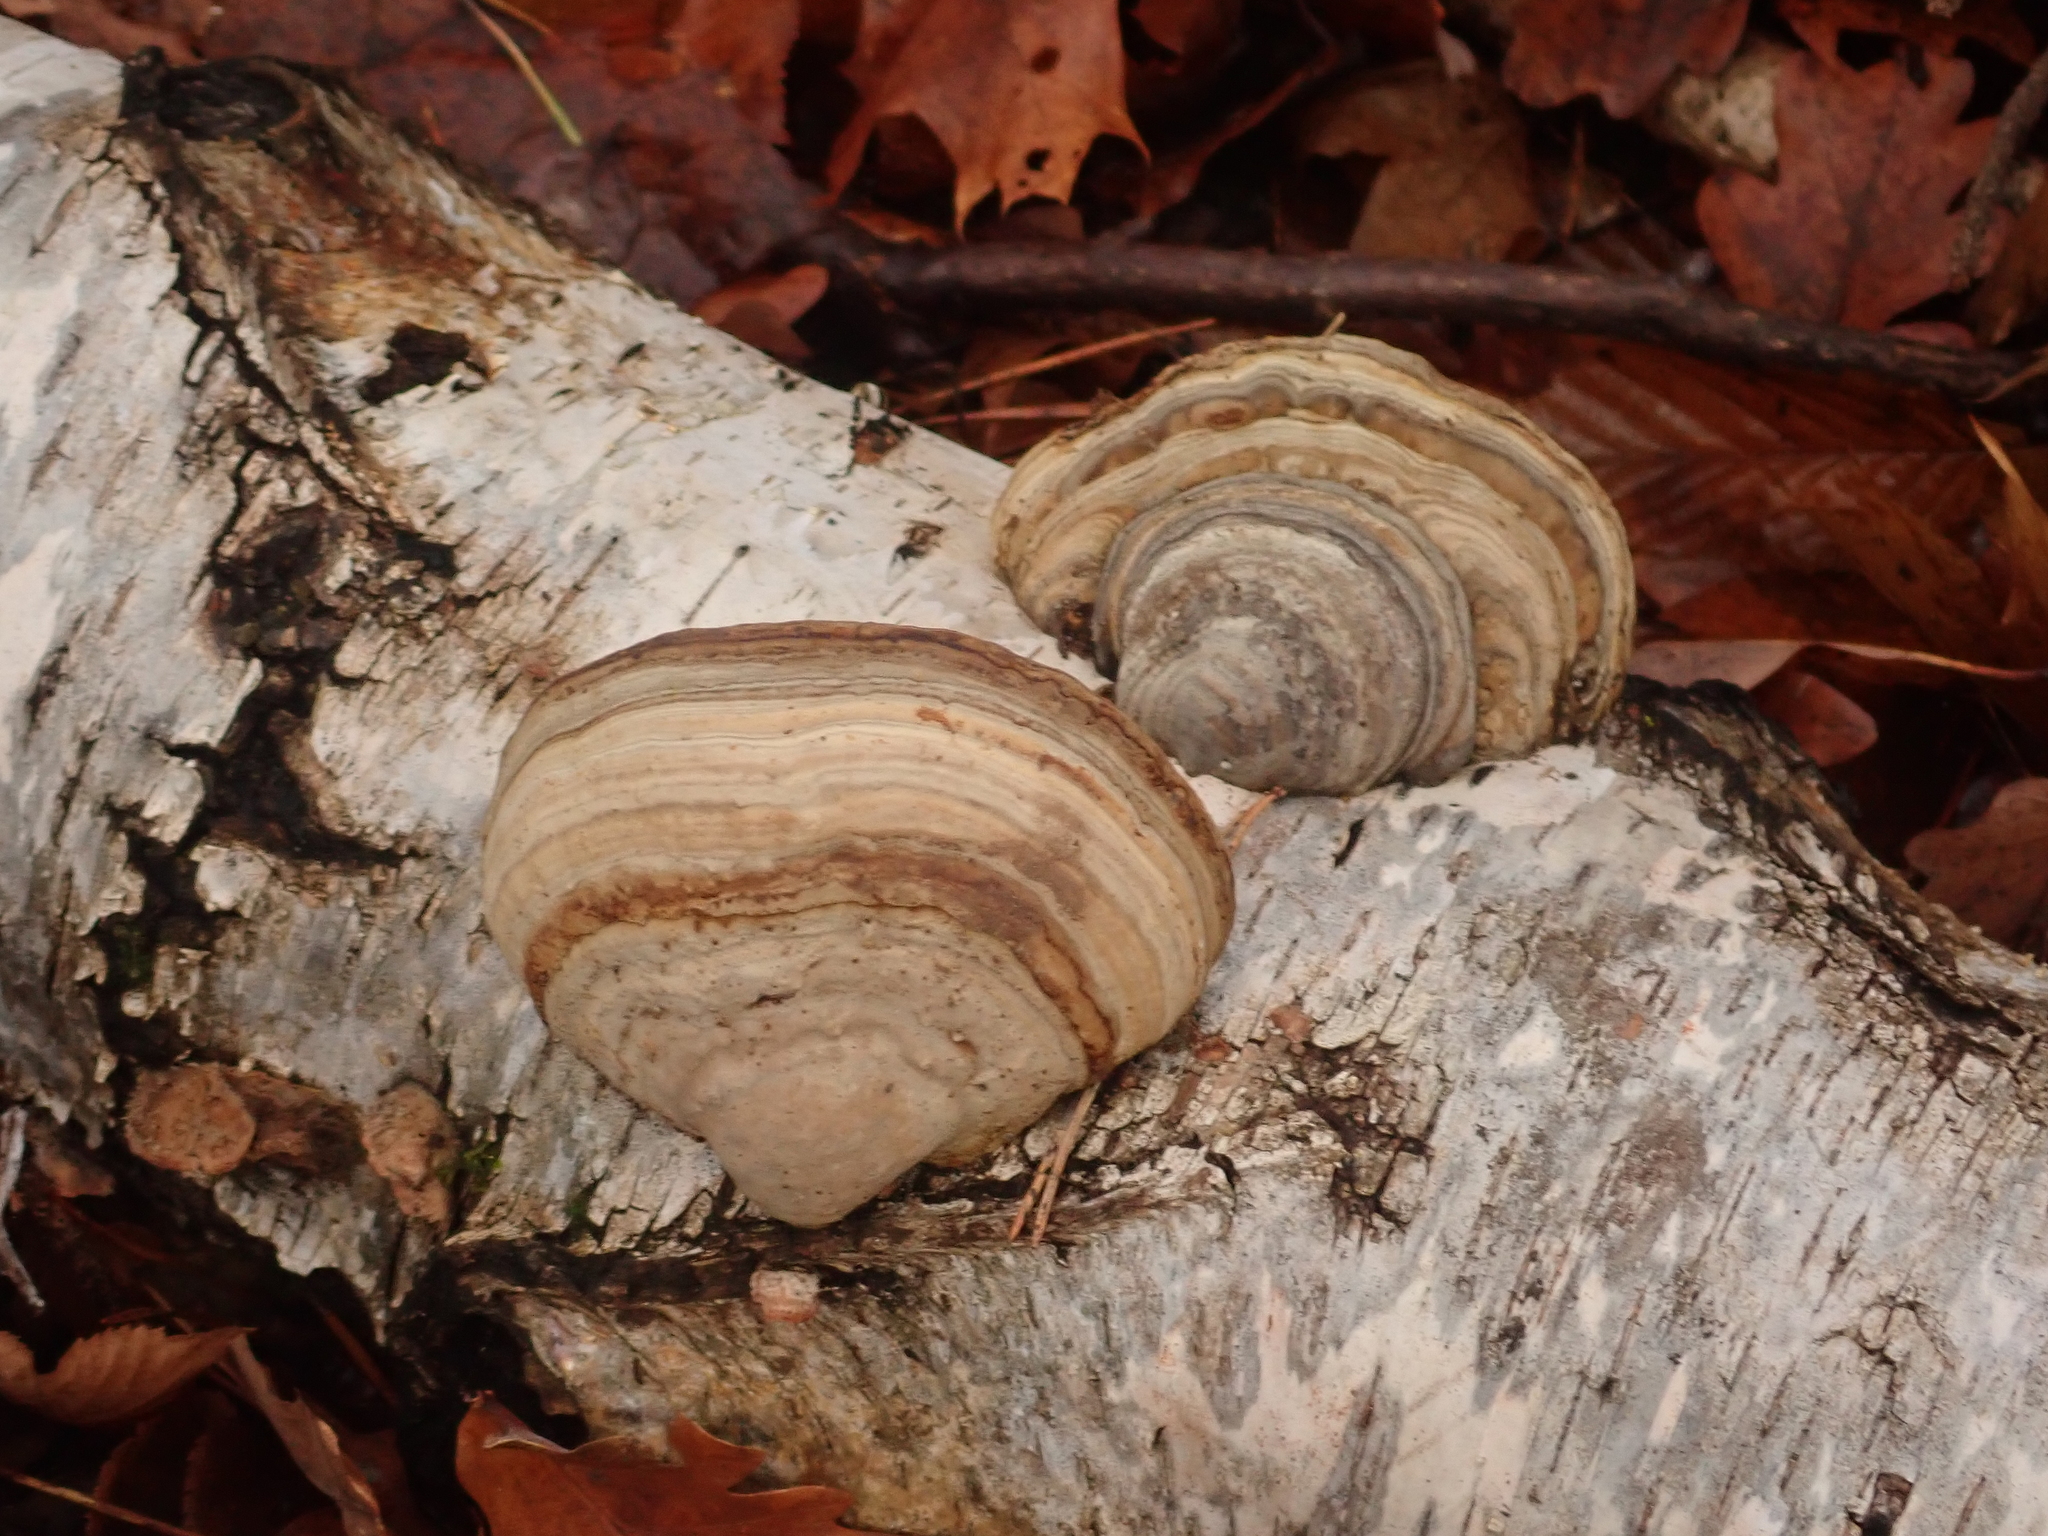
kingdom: Fungi
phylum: Basidiomycota
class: Agaricomycetes
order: Polyporales
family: Polyporaceae
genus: Fomes
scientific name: Fomes fomentarius
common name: Hoof fungus
